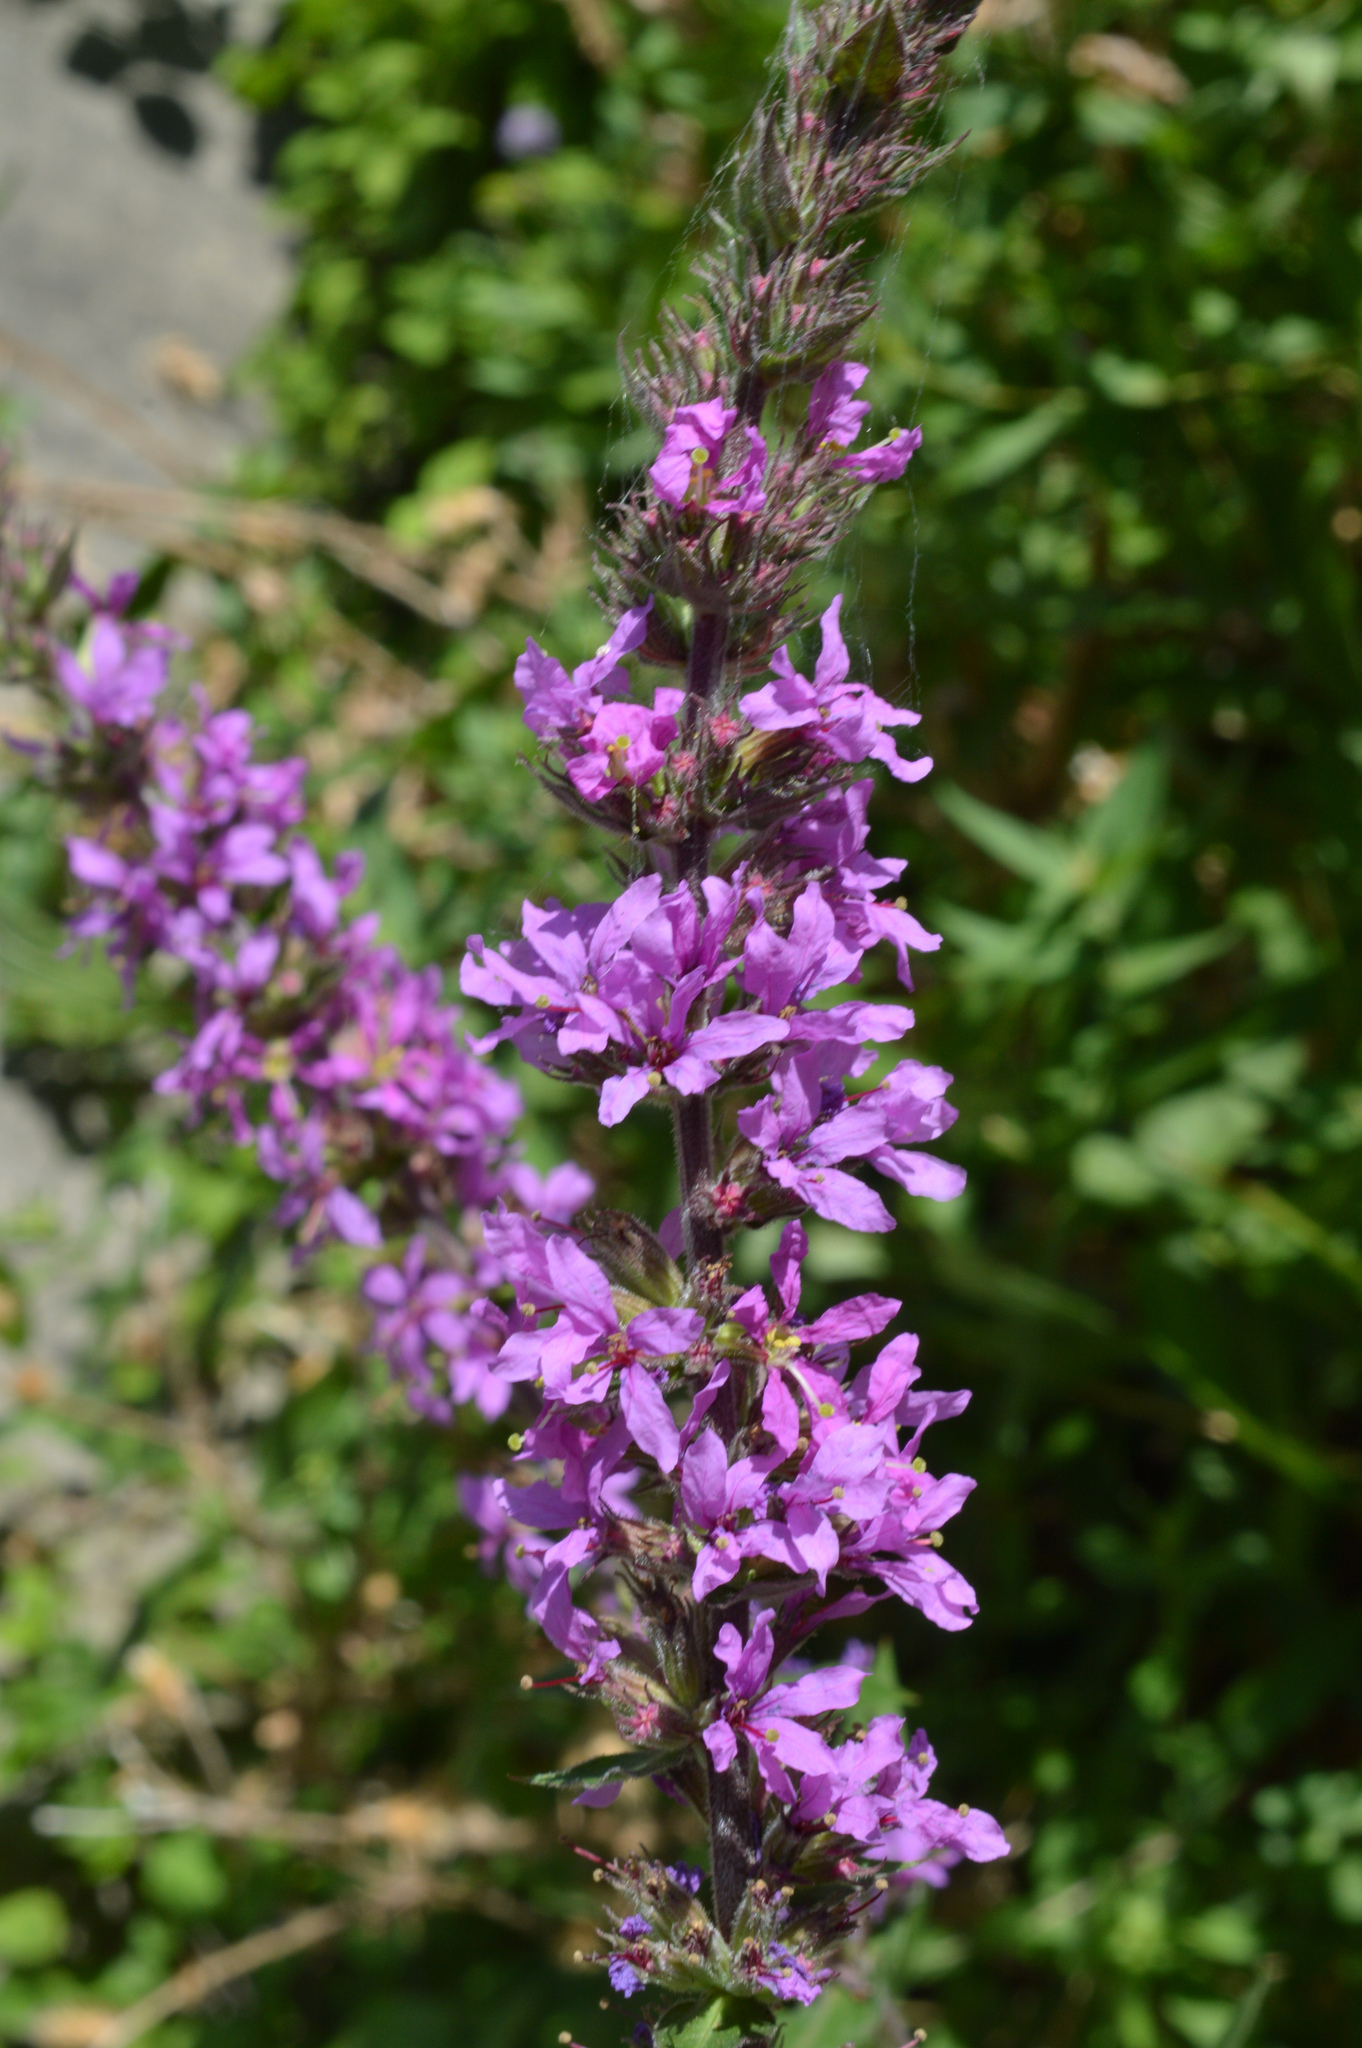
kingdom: Plantae
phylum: Tracheophyta
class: Magnoliopsida
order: Myrtales
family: Lythraceae
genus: Lythrum
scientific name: Lythrum salicaria
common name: Purple loosestrife
